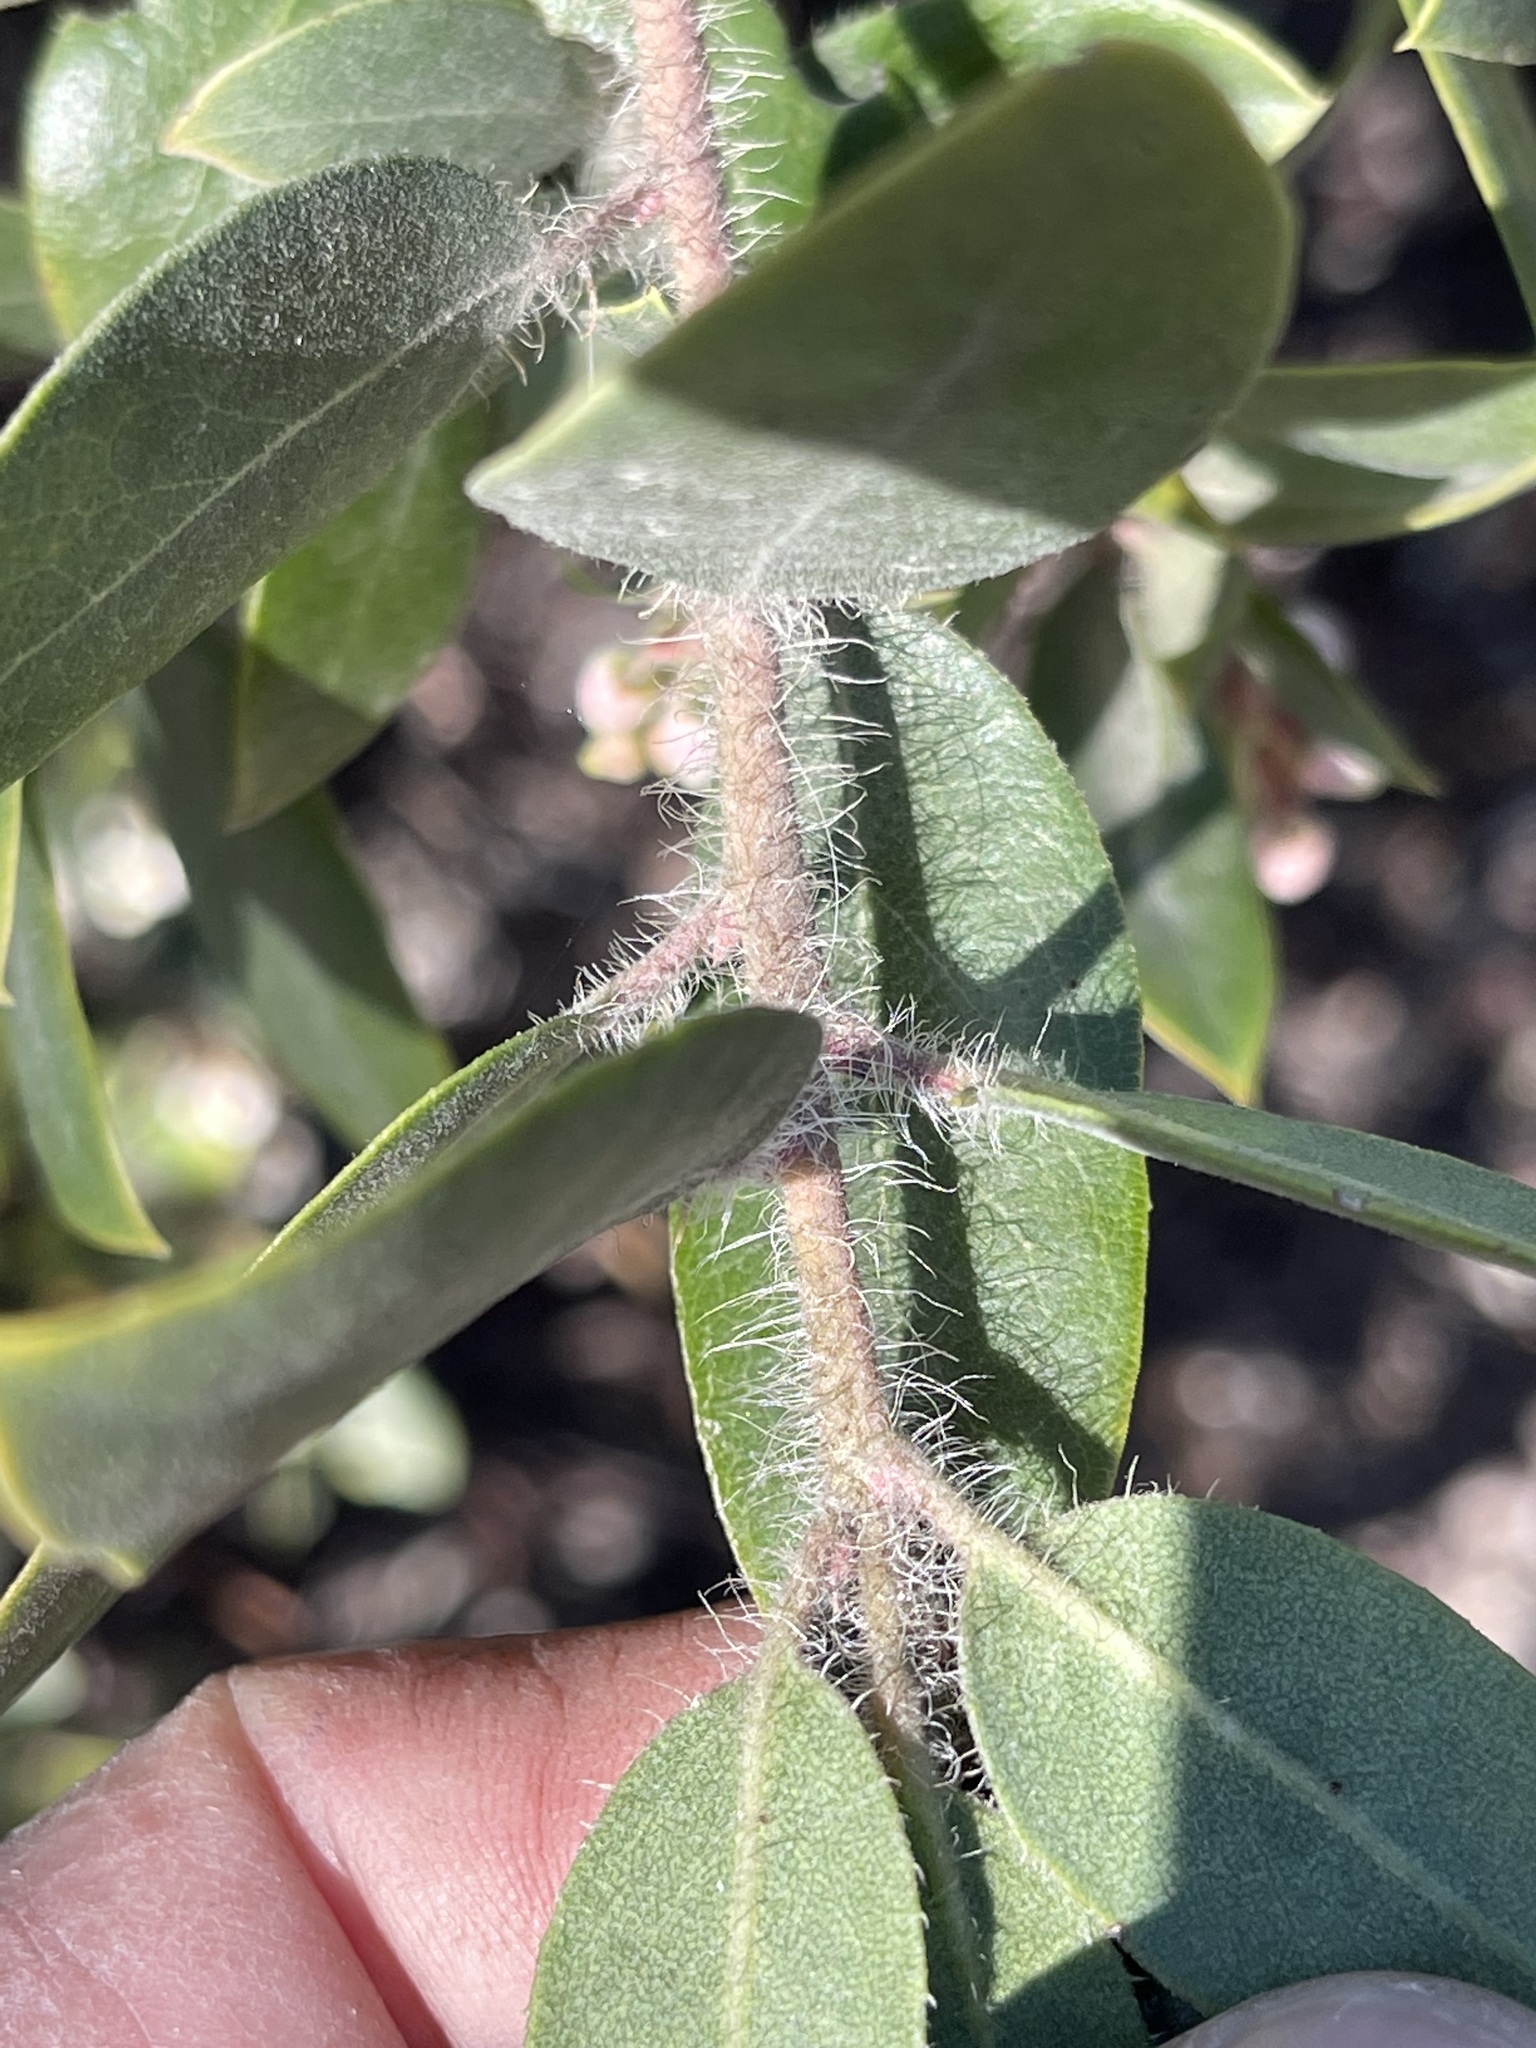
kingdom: Plantae
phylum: Tracheophyta
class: Magnoliopsida
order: Ericales
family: Ericaceae
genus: Arctostaphylos
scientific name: Arctostaphylos crustacea
